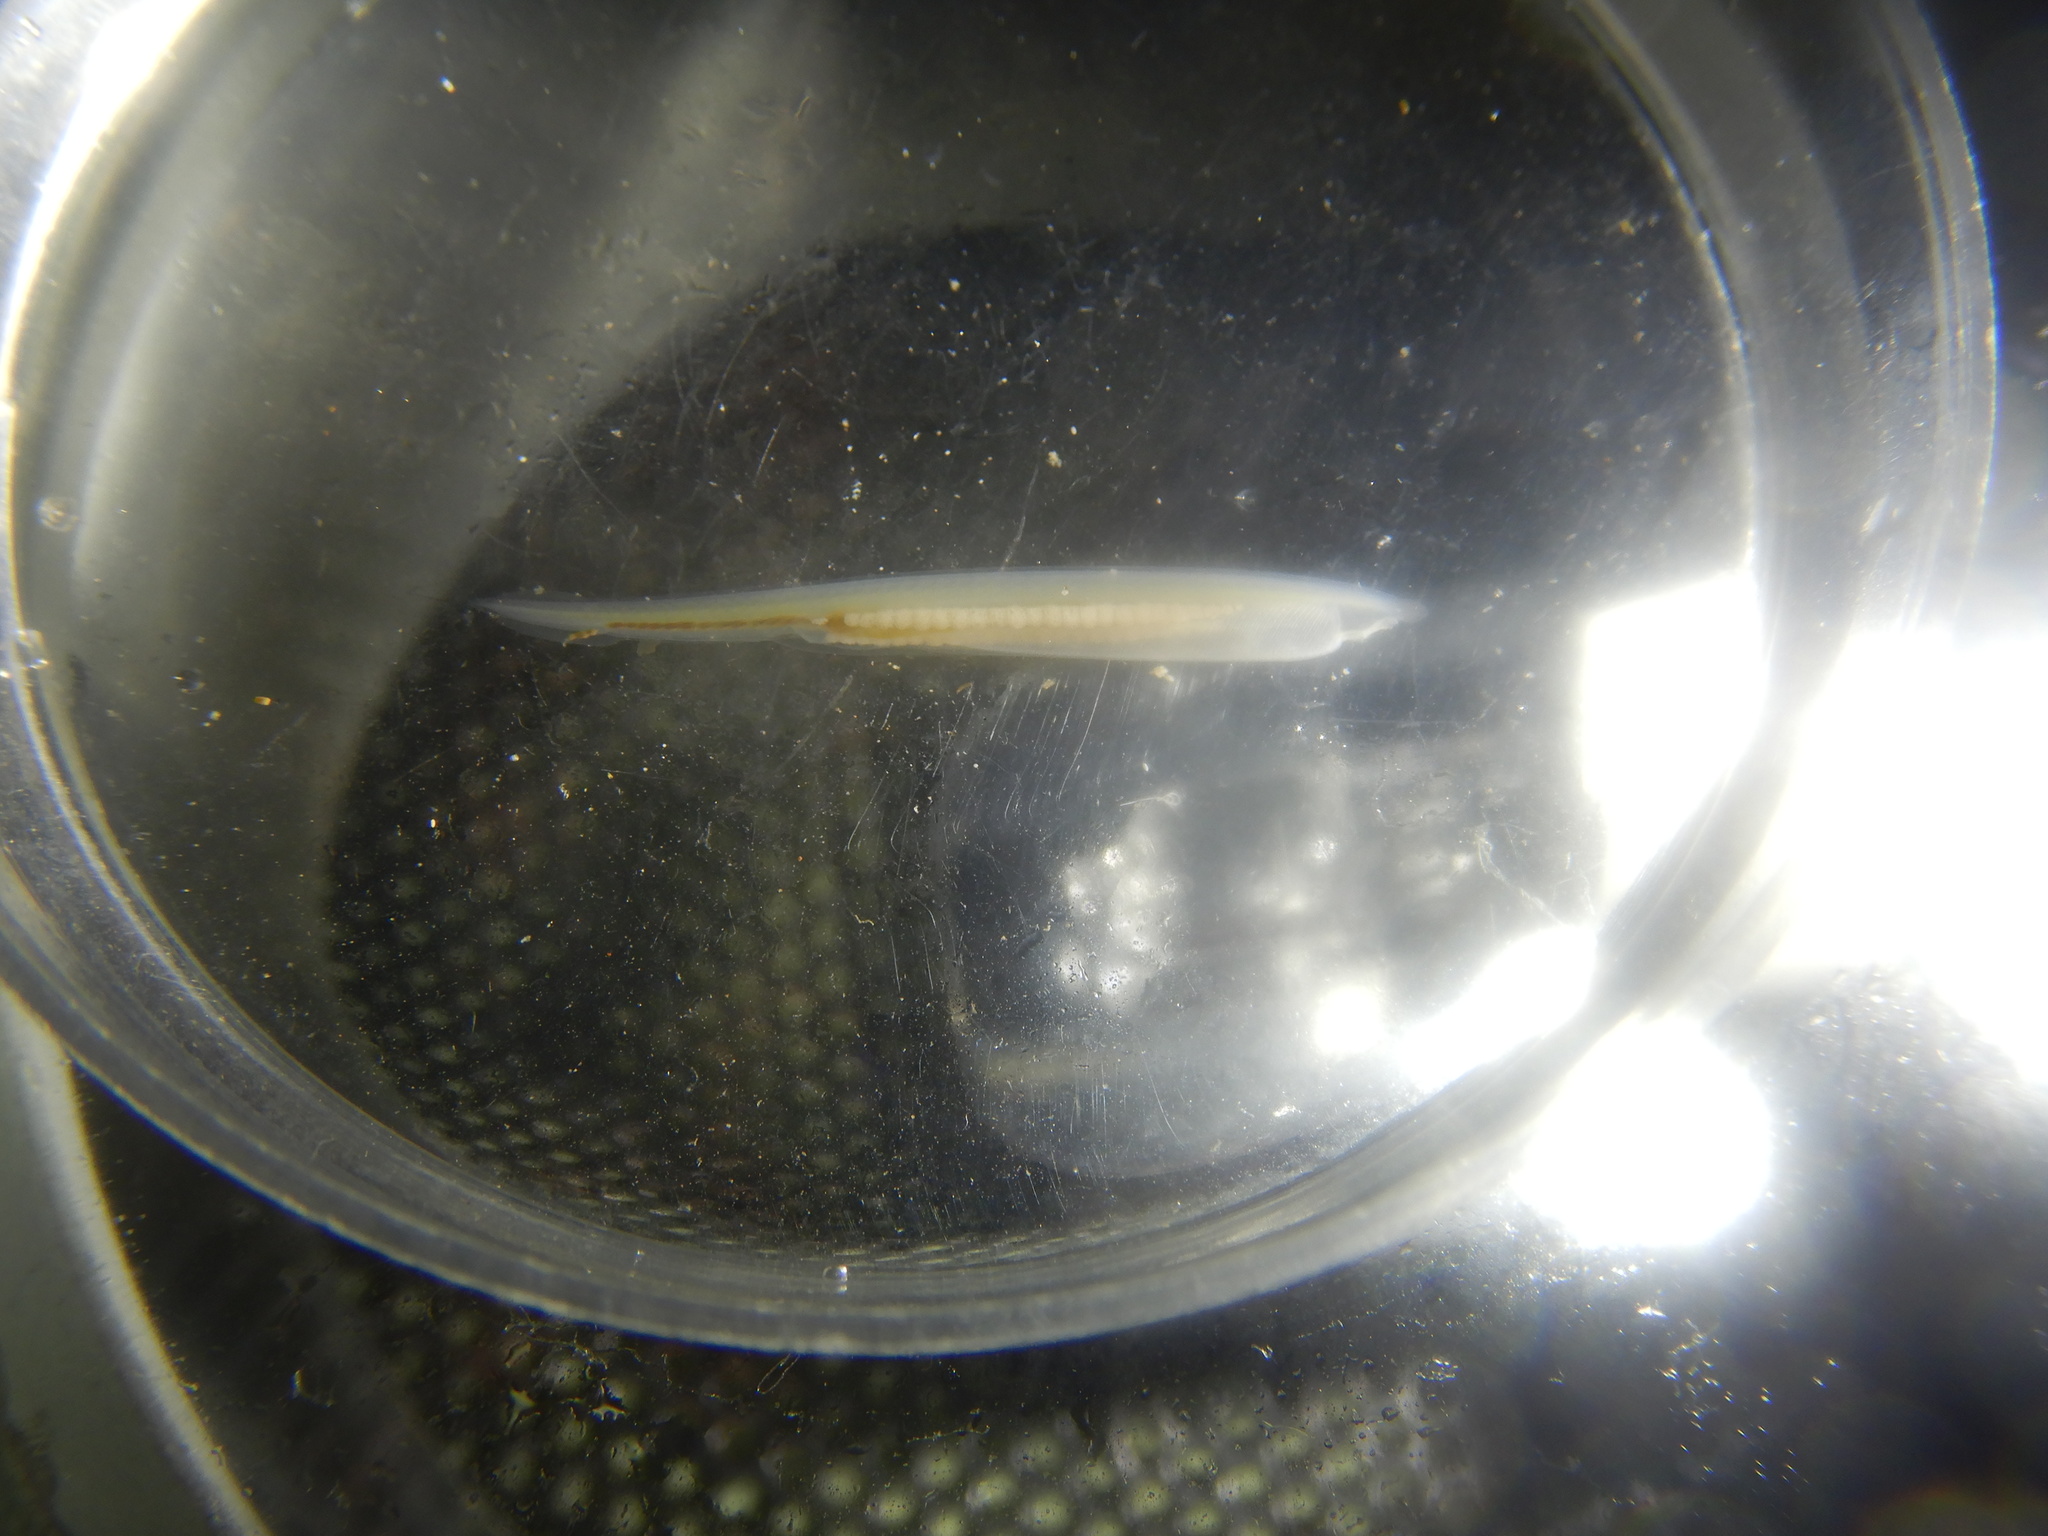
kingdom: Animalia
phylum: Chordata
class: Leptocardii
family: Branchiostomatidae
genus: Branchiostoma
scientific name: Branchiostoma lanceolatum
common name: Lancelet
